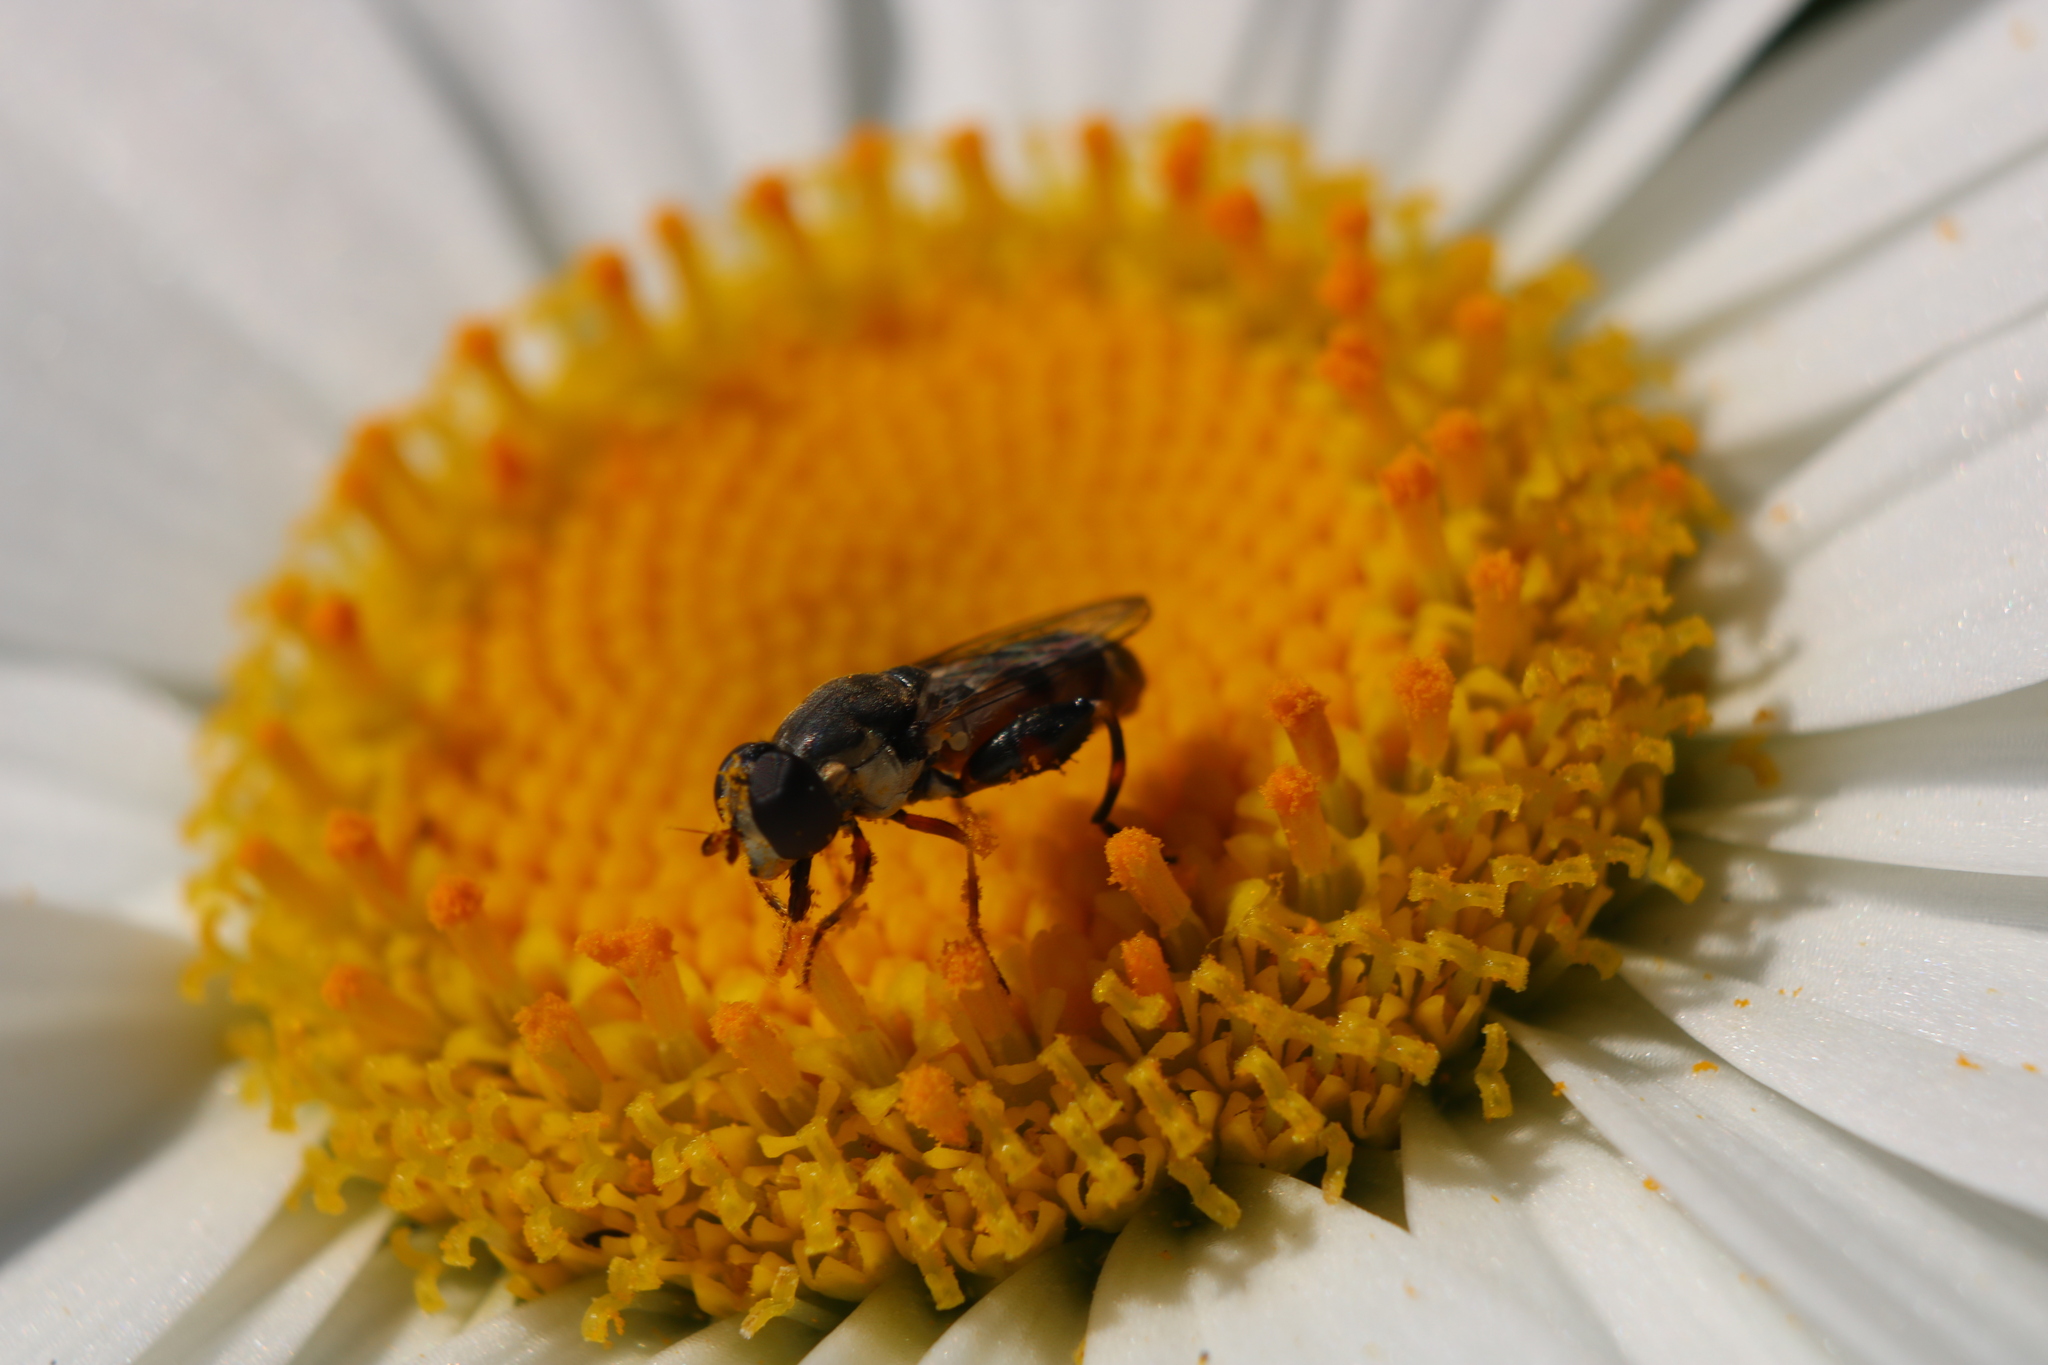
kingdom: Animalia
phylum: Arthropoda
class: Insecta
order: Diptera
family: Syrphidae
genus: Syritta
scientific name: Syritta pipiens
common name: Hover fly
